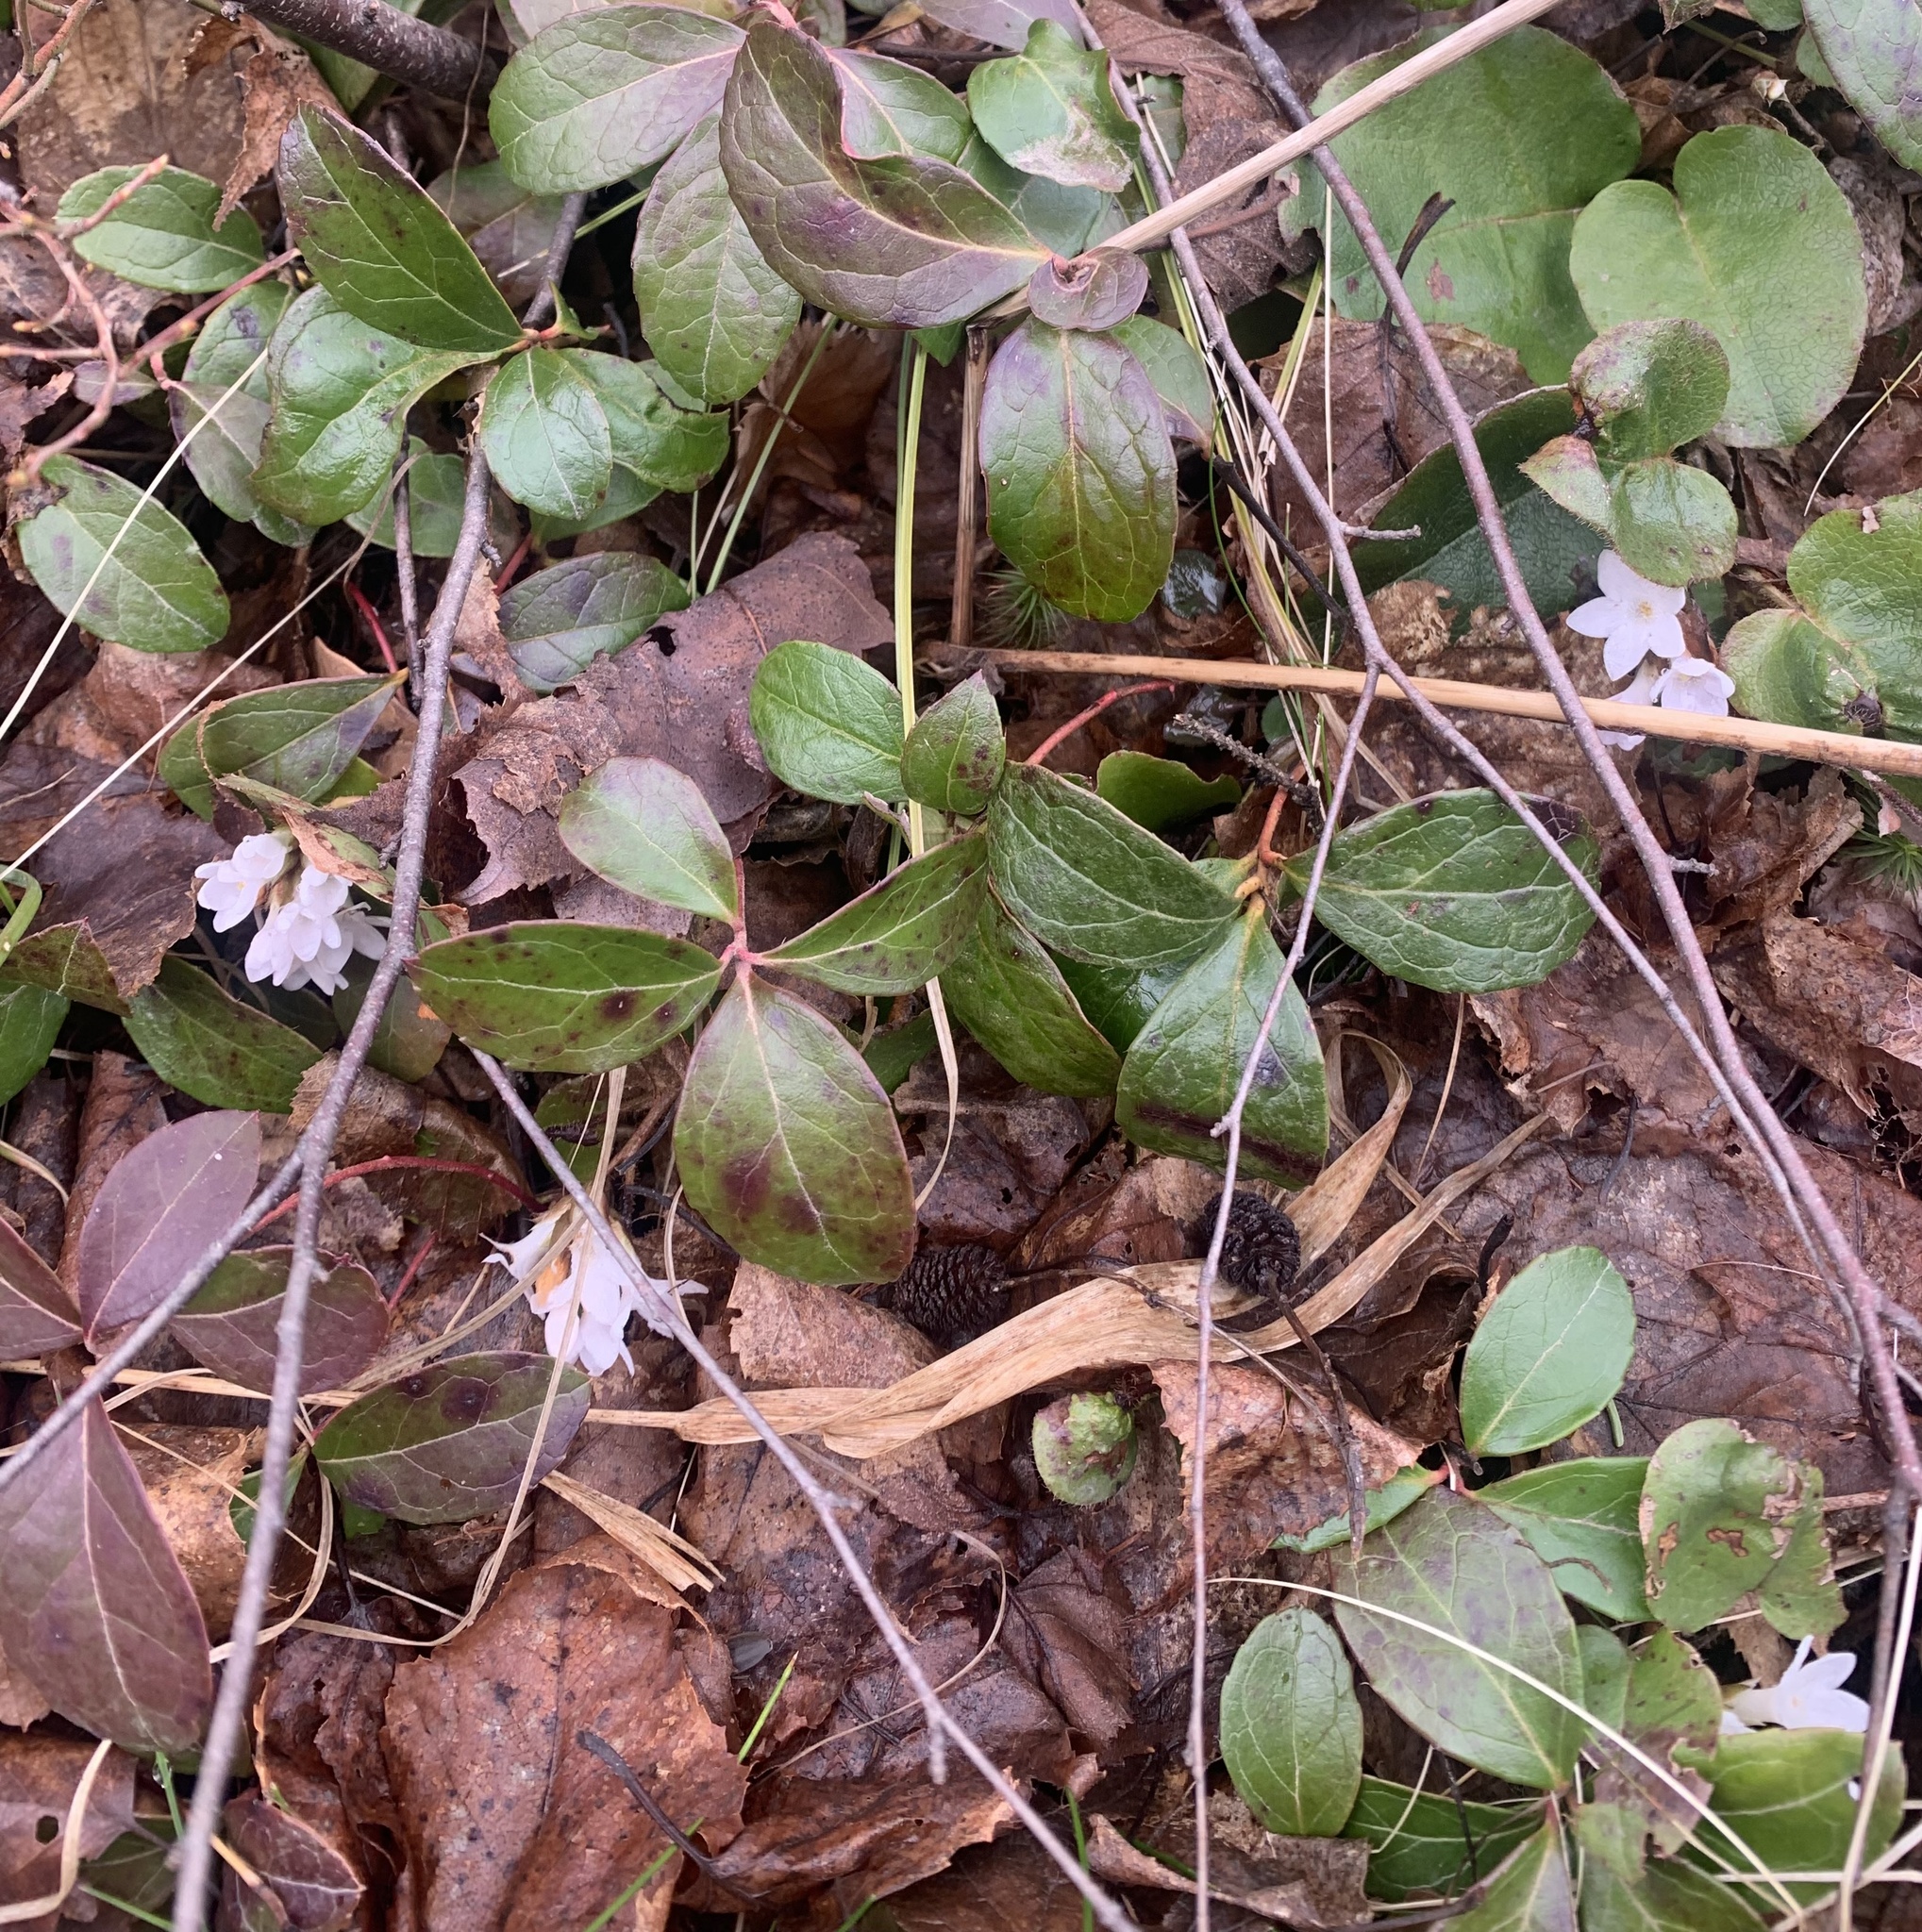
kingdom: Plantae
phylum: Tracheophyta
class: Magnoliopsida
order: Ericales
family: Ericaceae
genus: Epigaea
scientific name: Epigaea repens
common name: Gravelroot
